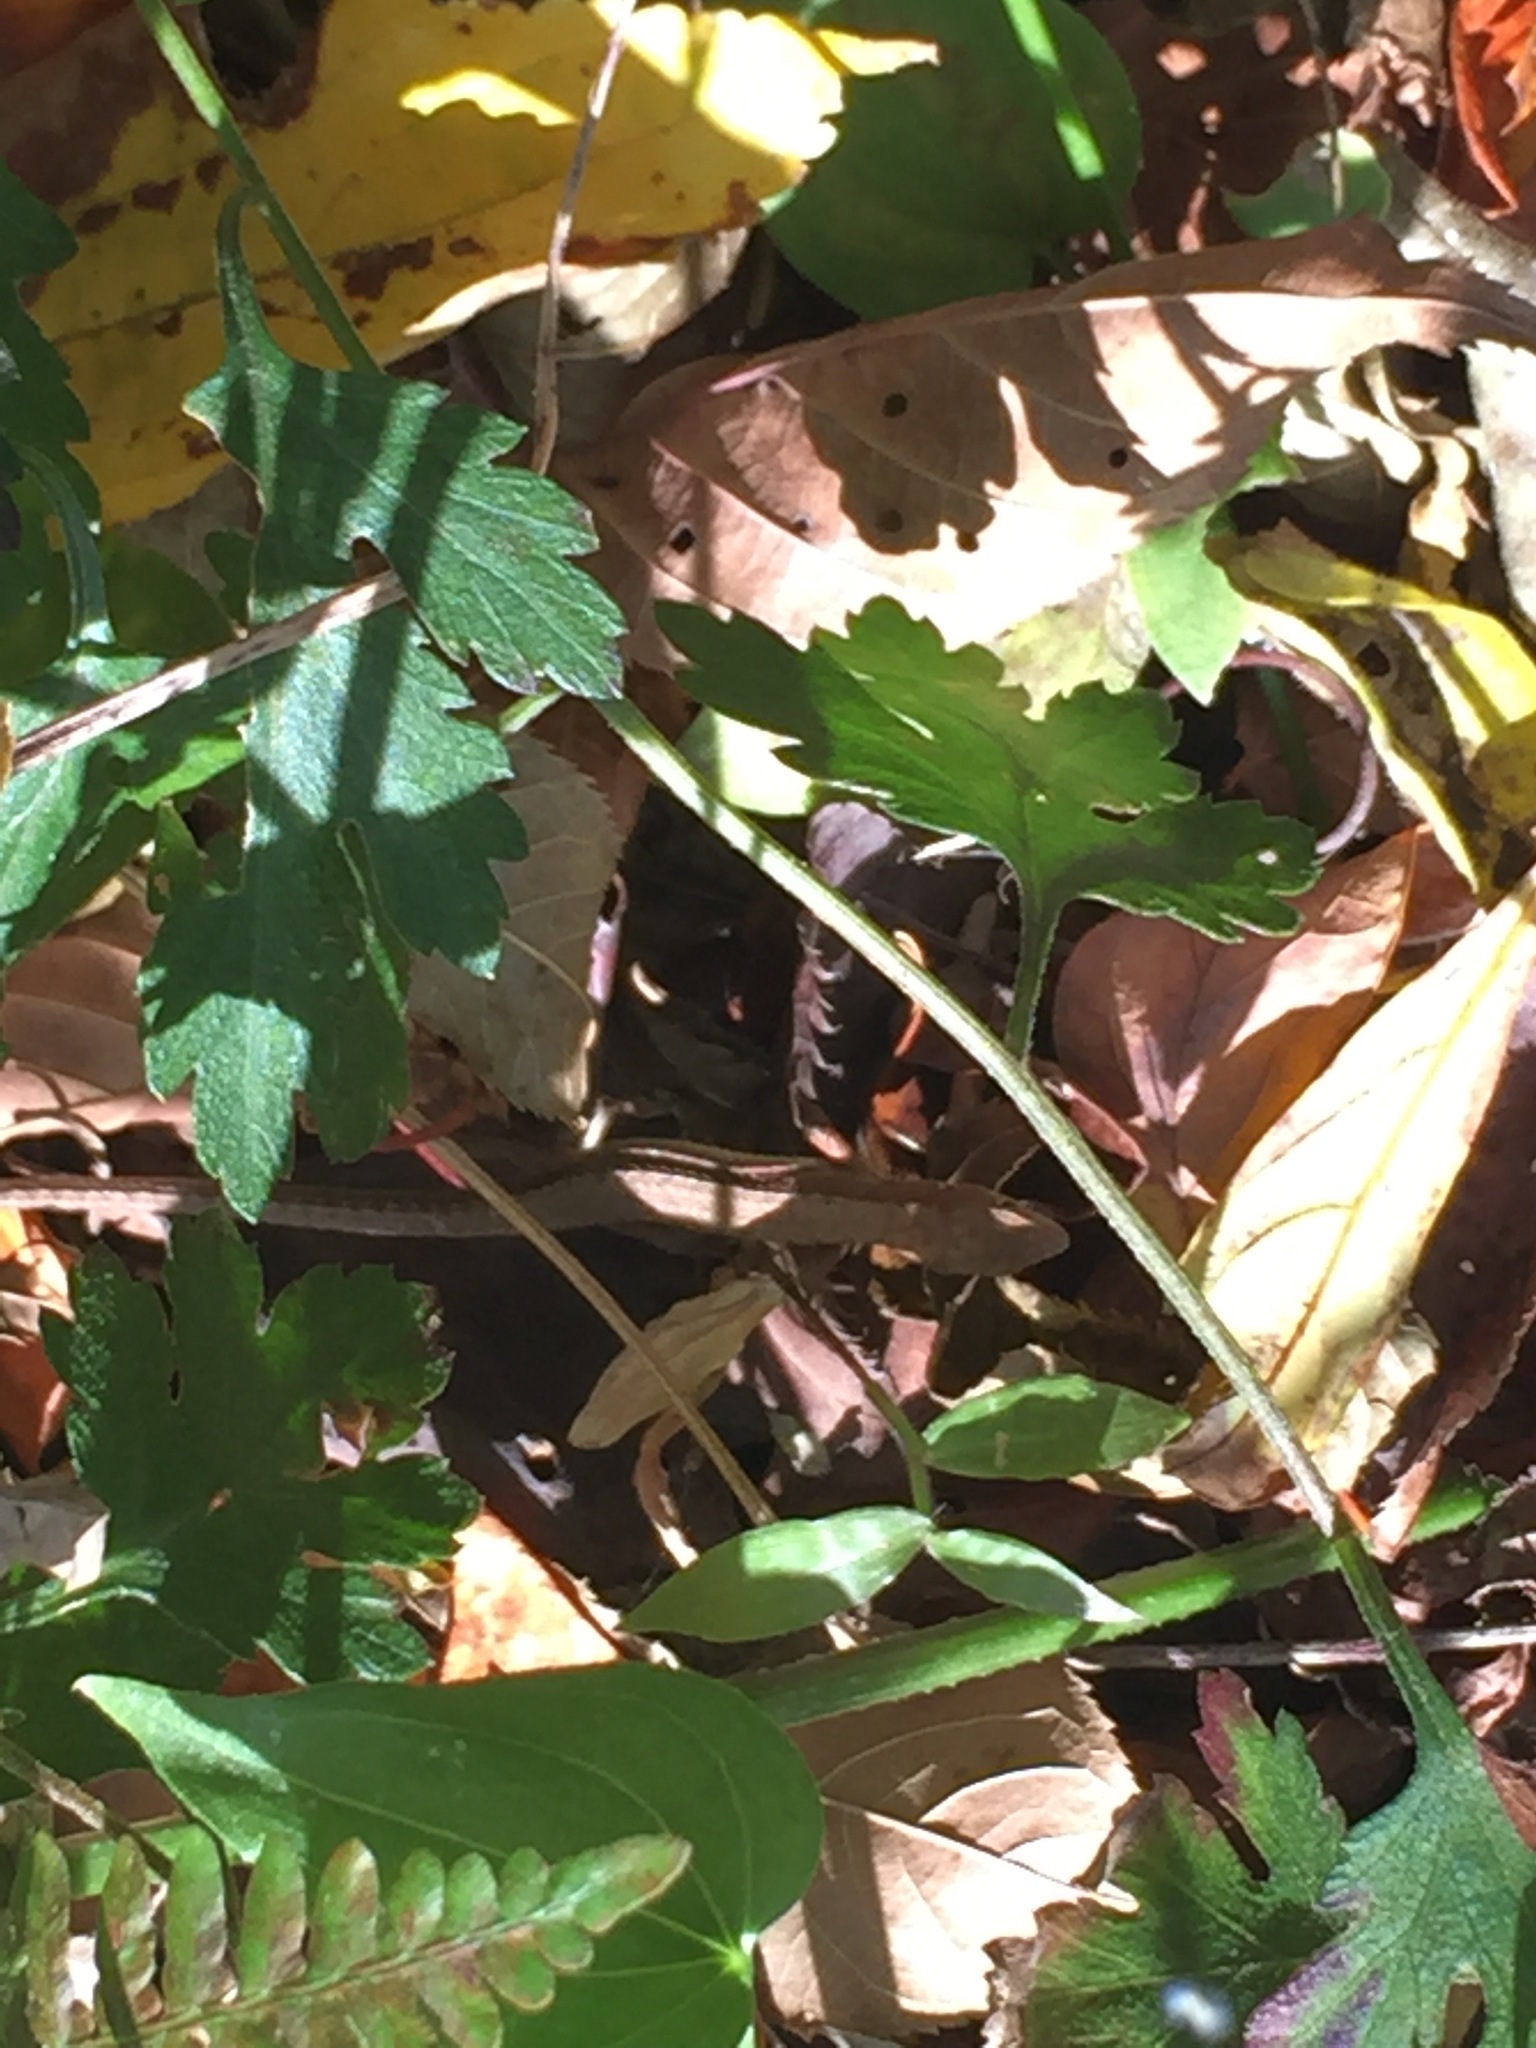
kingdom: Animalia
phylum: Chordata
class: Squamata
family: Lacertidae
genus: Takydromus
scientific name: Takydromus amurensis
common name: Amur grass lizard
